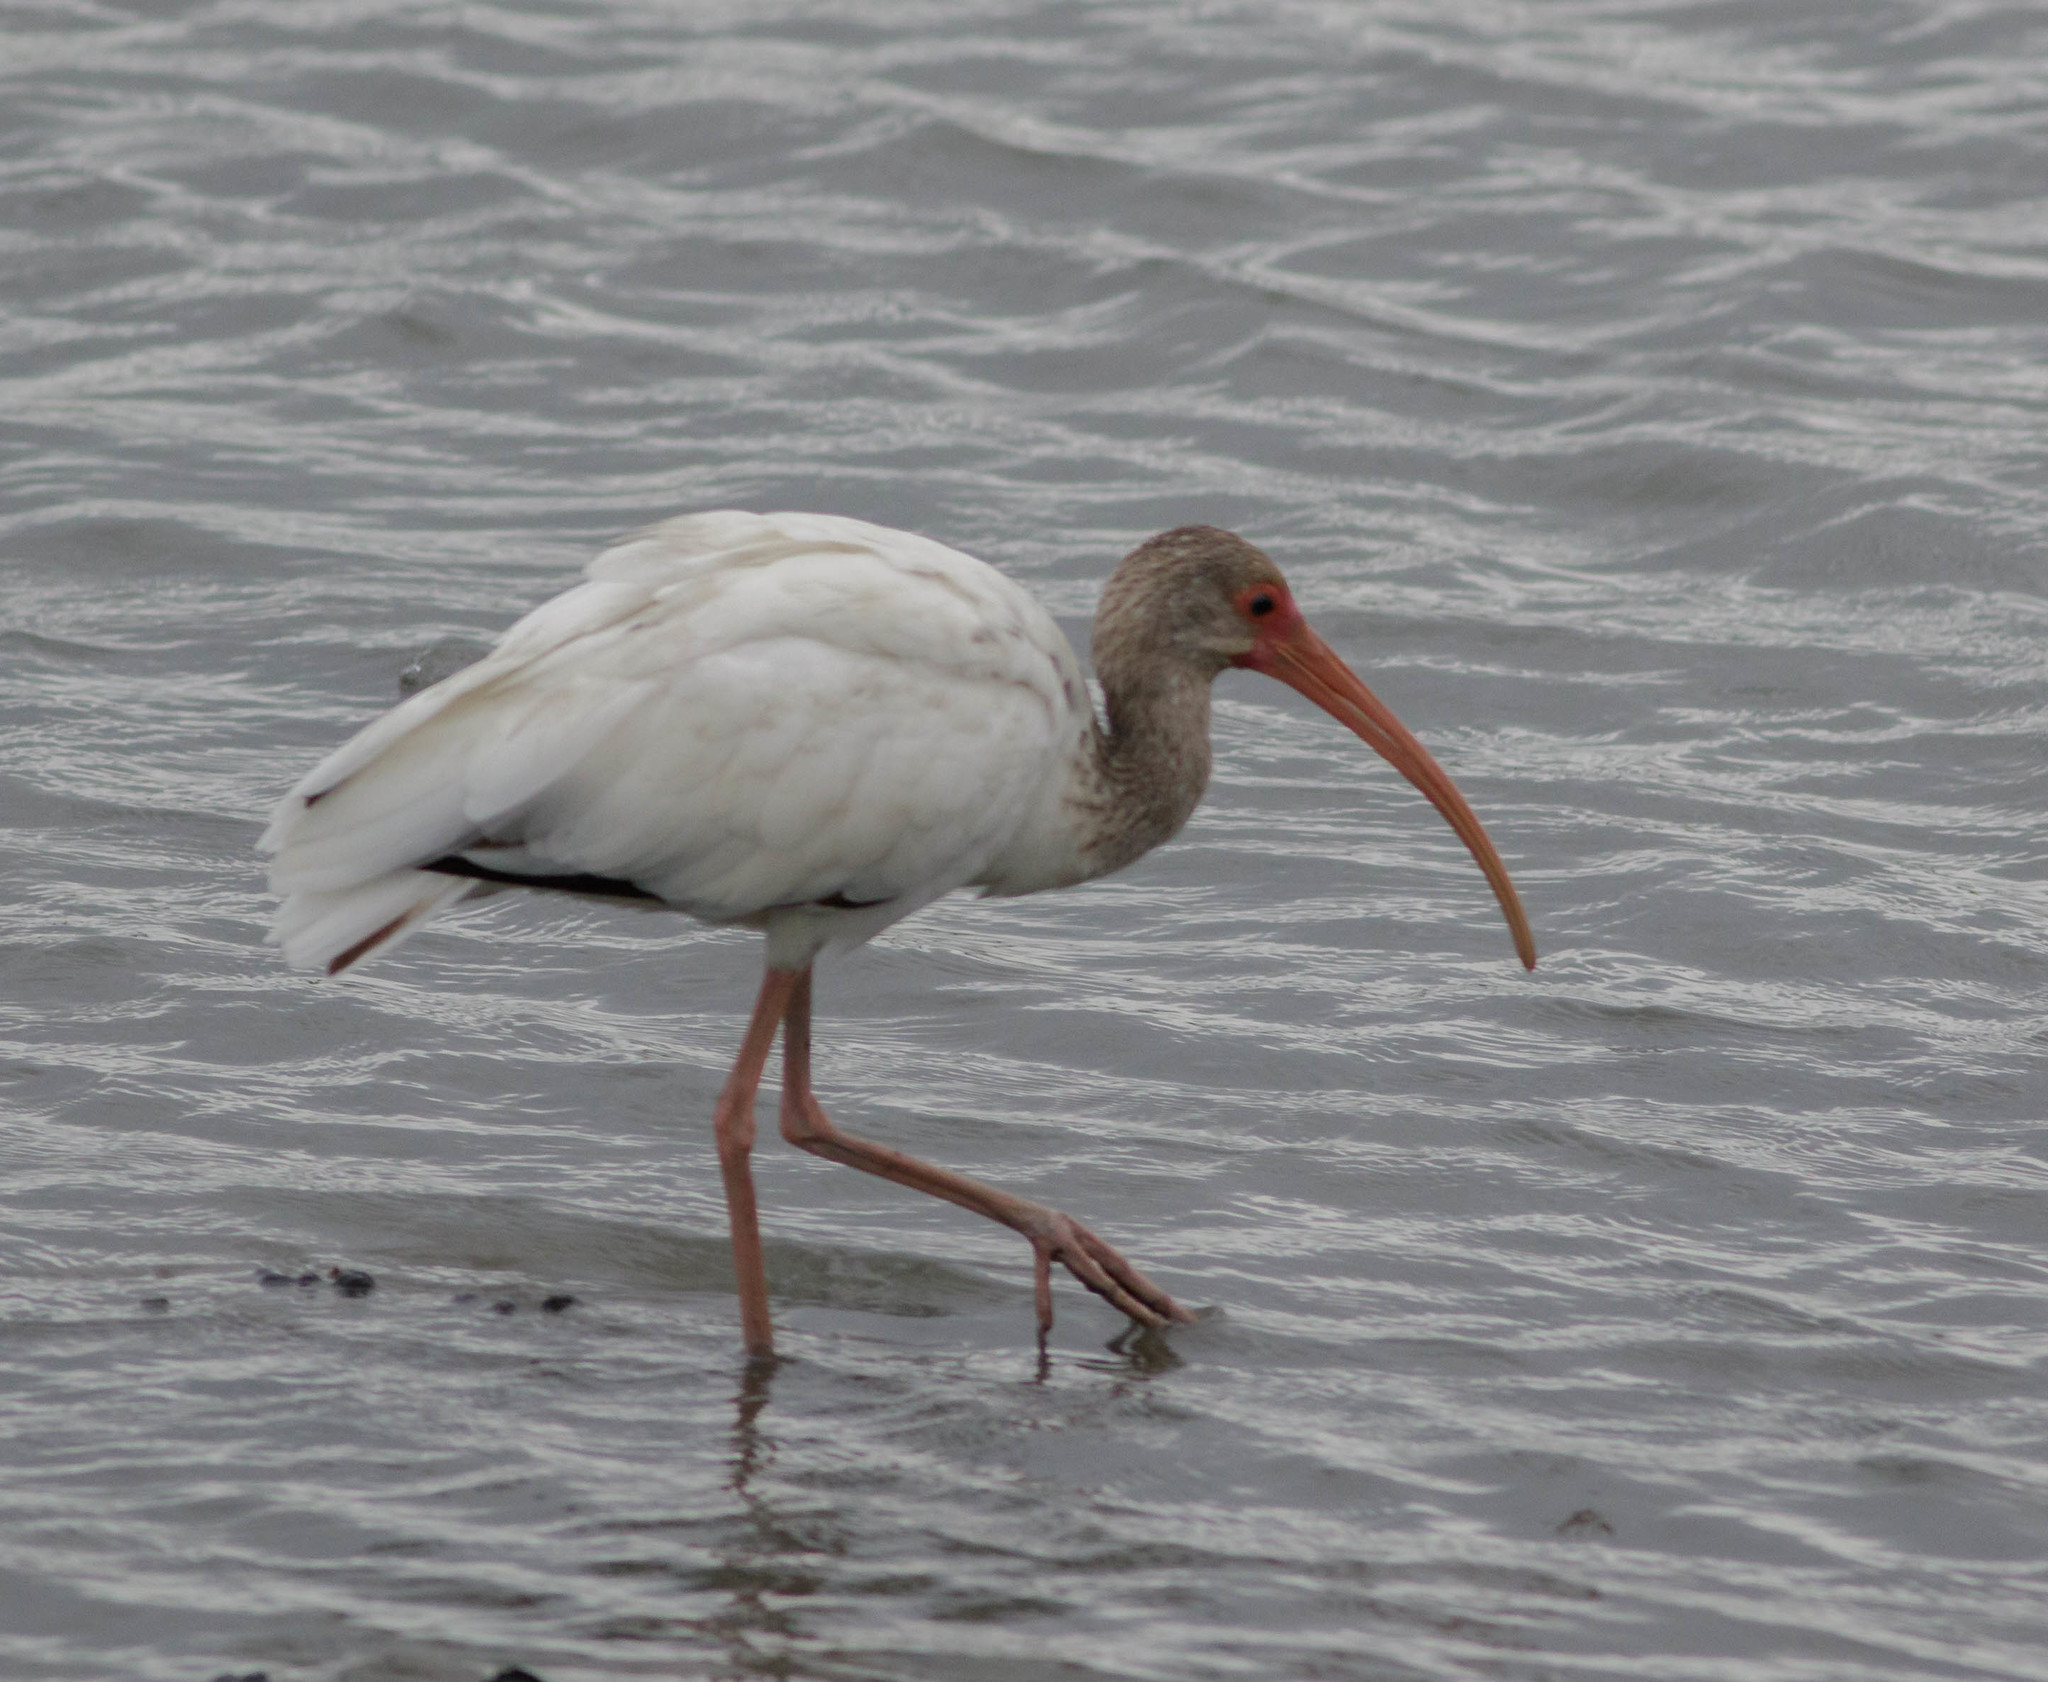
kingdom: Animalia
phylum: Chordata
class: Aves
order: Pelecaniformes
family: Threskiornithidae
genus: Eudocimus
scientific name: Eudocimus albus
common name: White ibis
